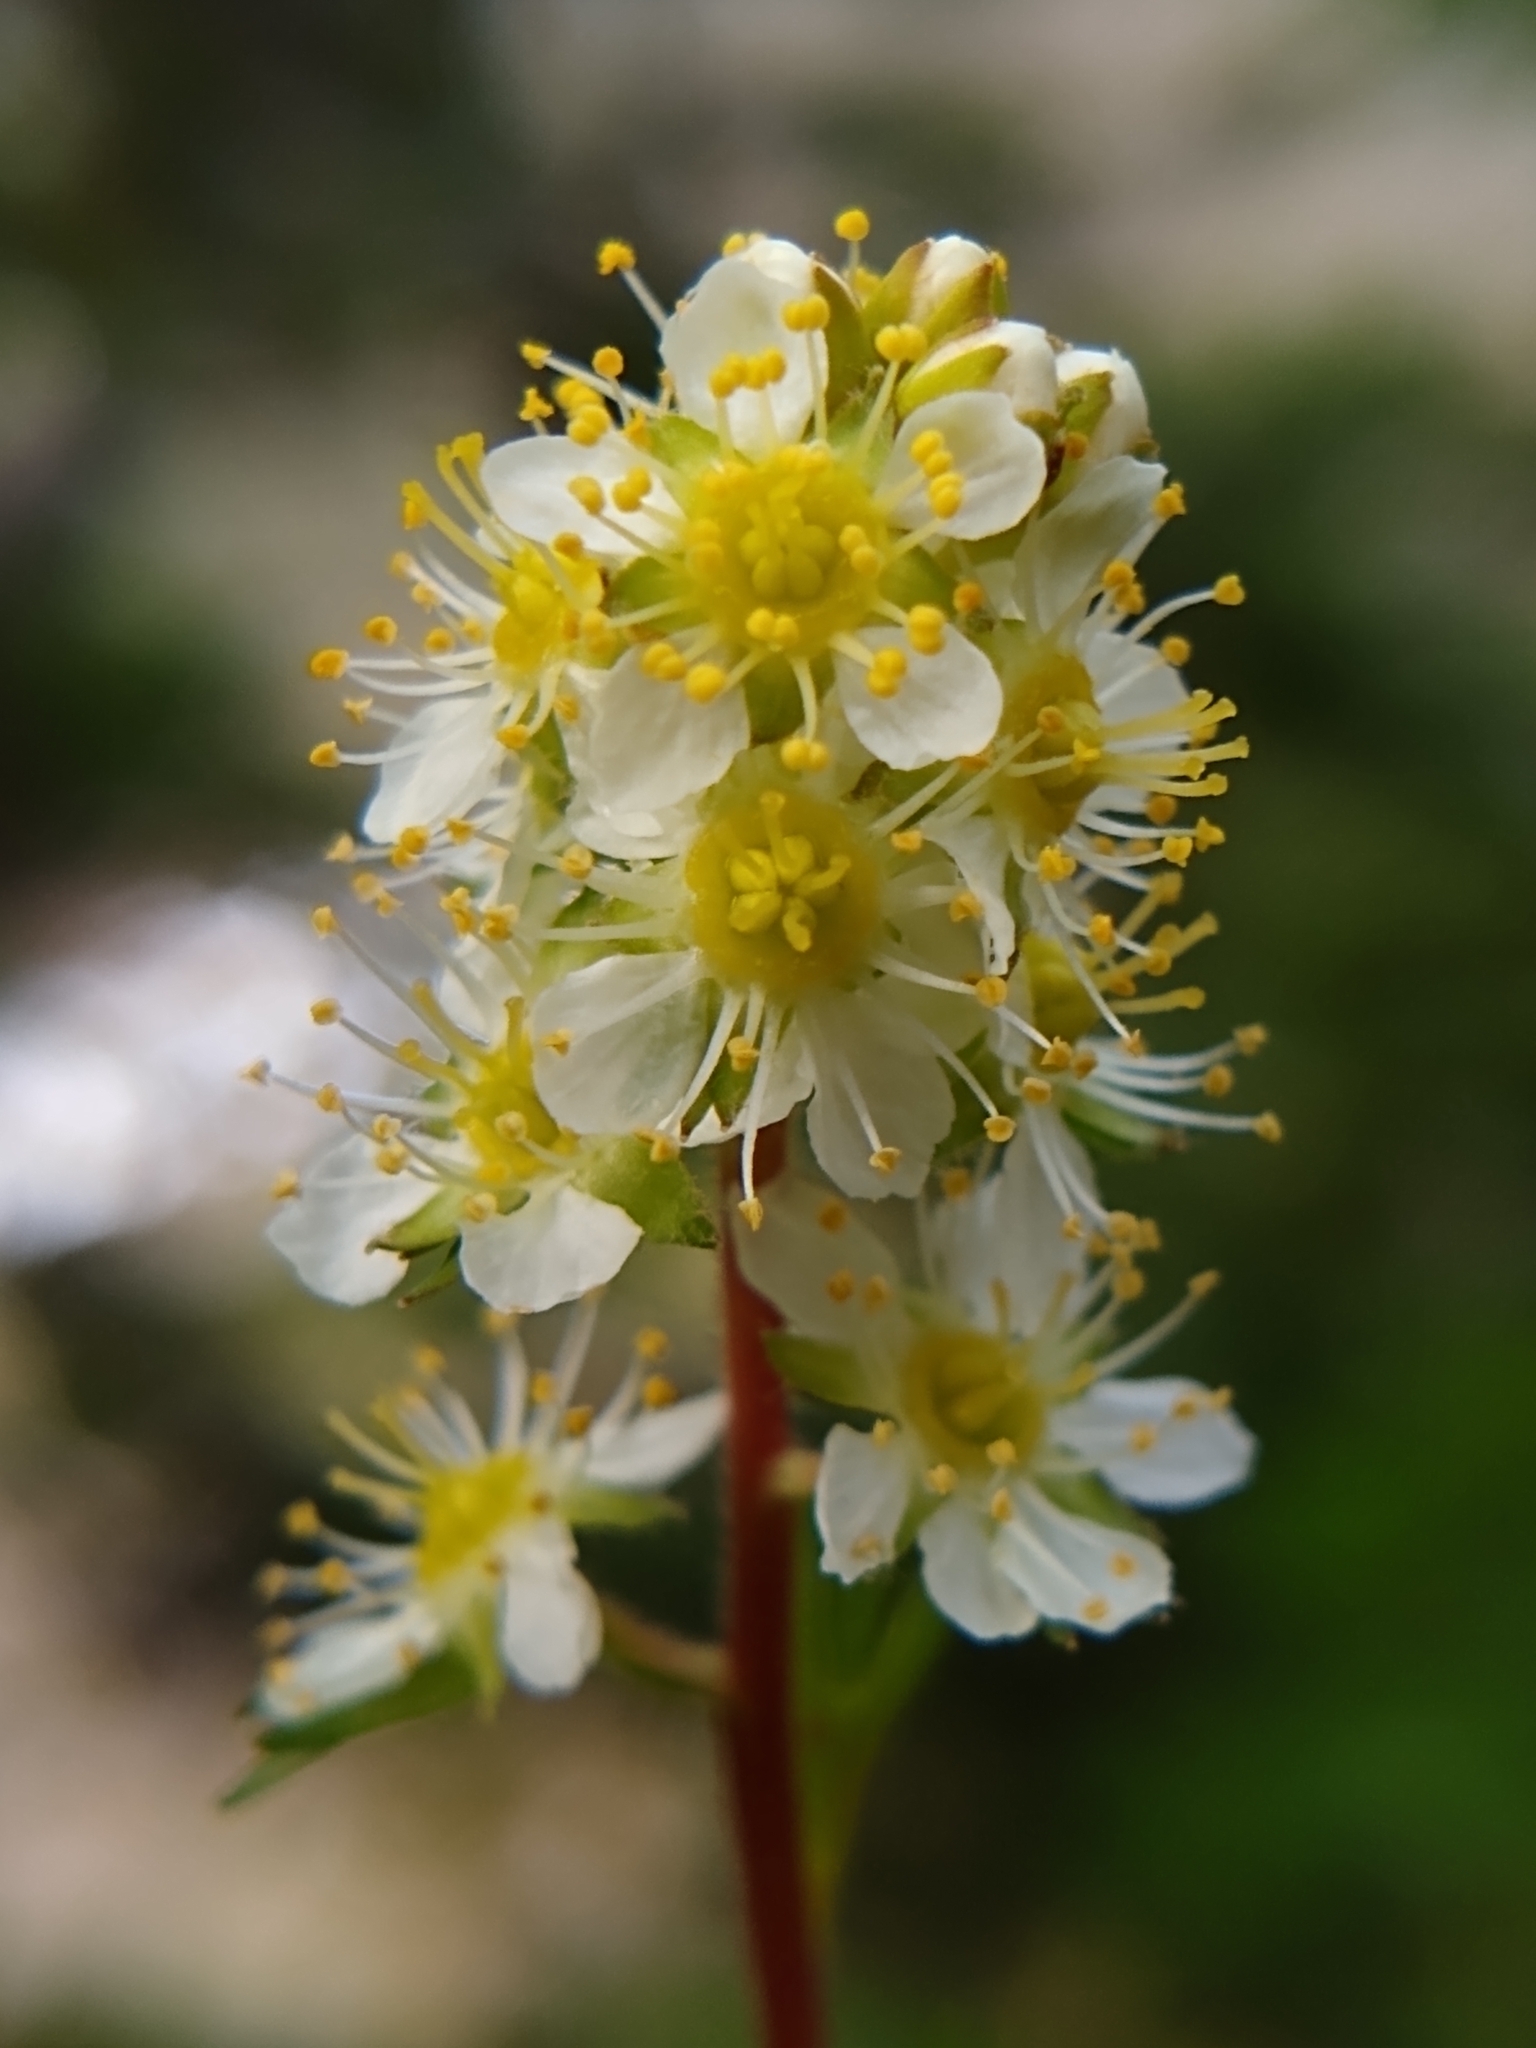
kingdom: Plantae
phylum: Tracheophyta
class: Magnoliopsida
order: Rosales
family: Rosaceae
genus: Luetkea
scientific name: Luetkea pectinata
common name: Partridgefoot
